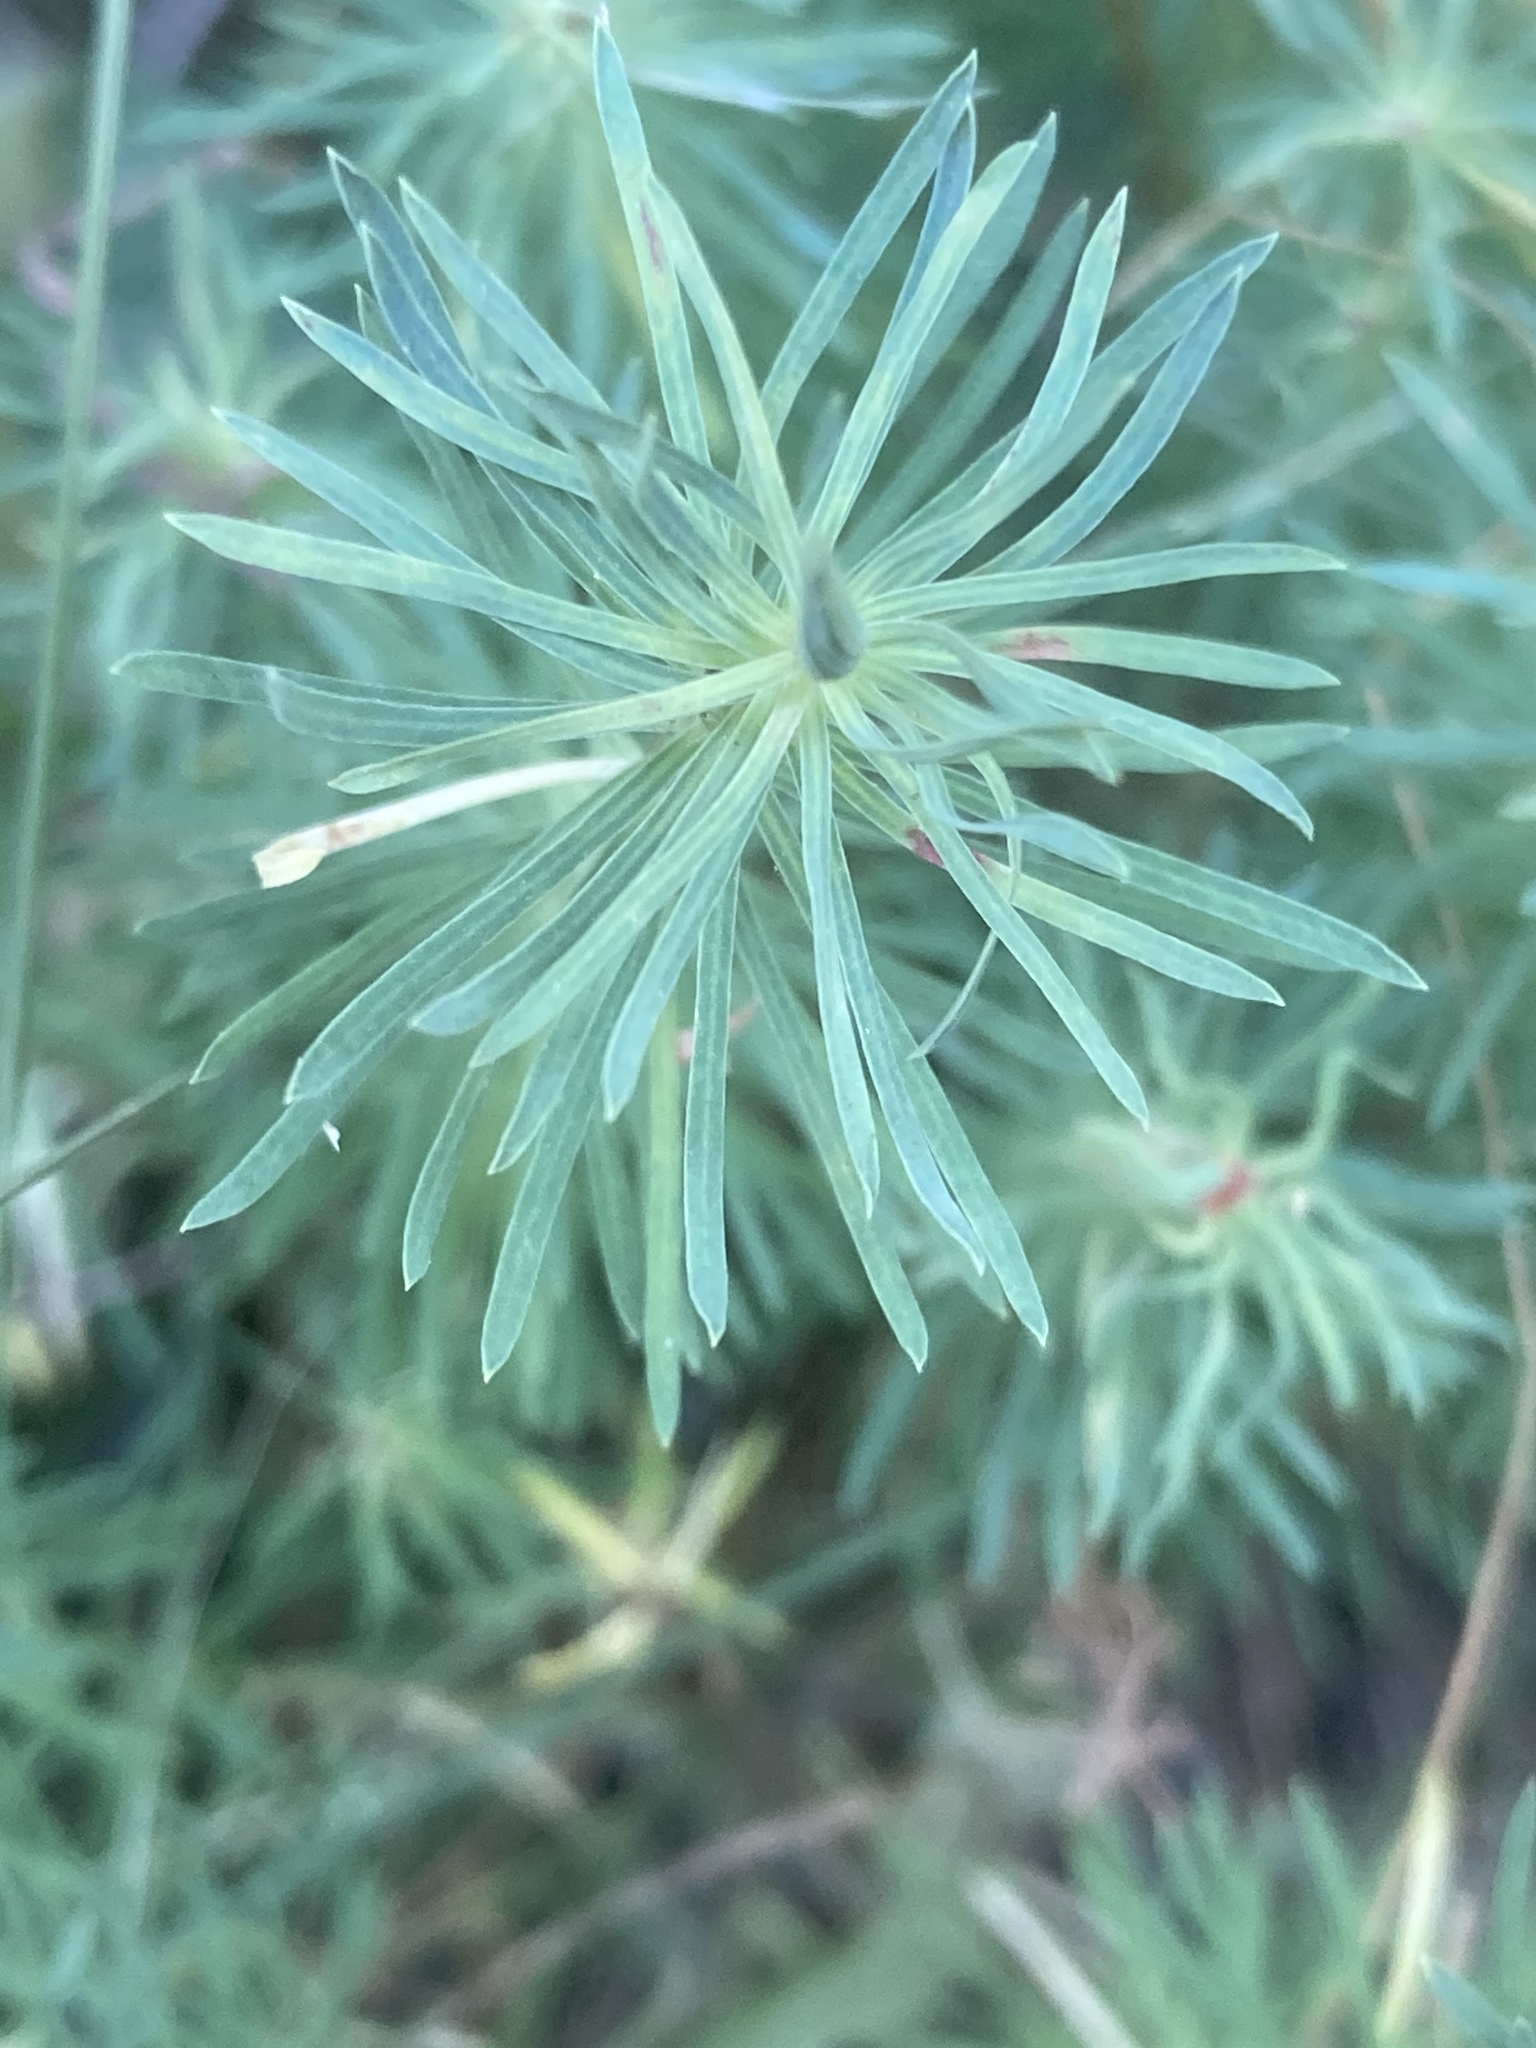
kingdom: Plantae
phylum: Tracheophyta
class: Magnoliopsida
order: Malpighiales
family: Euphorbiaceae
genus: Euphorbia
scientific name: Euphorbia cyparissias
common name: Cypress spurge
